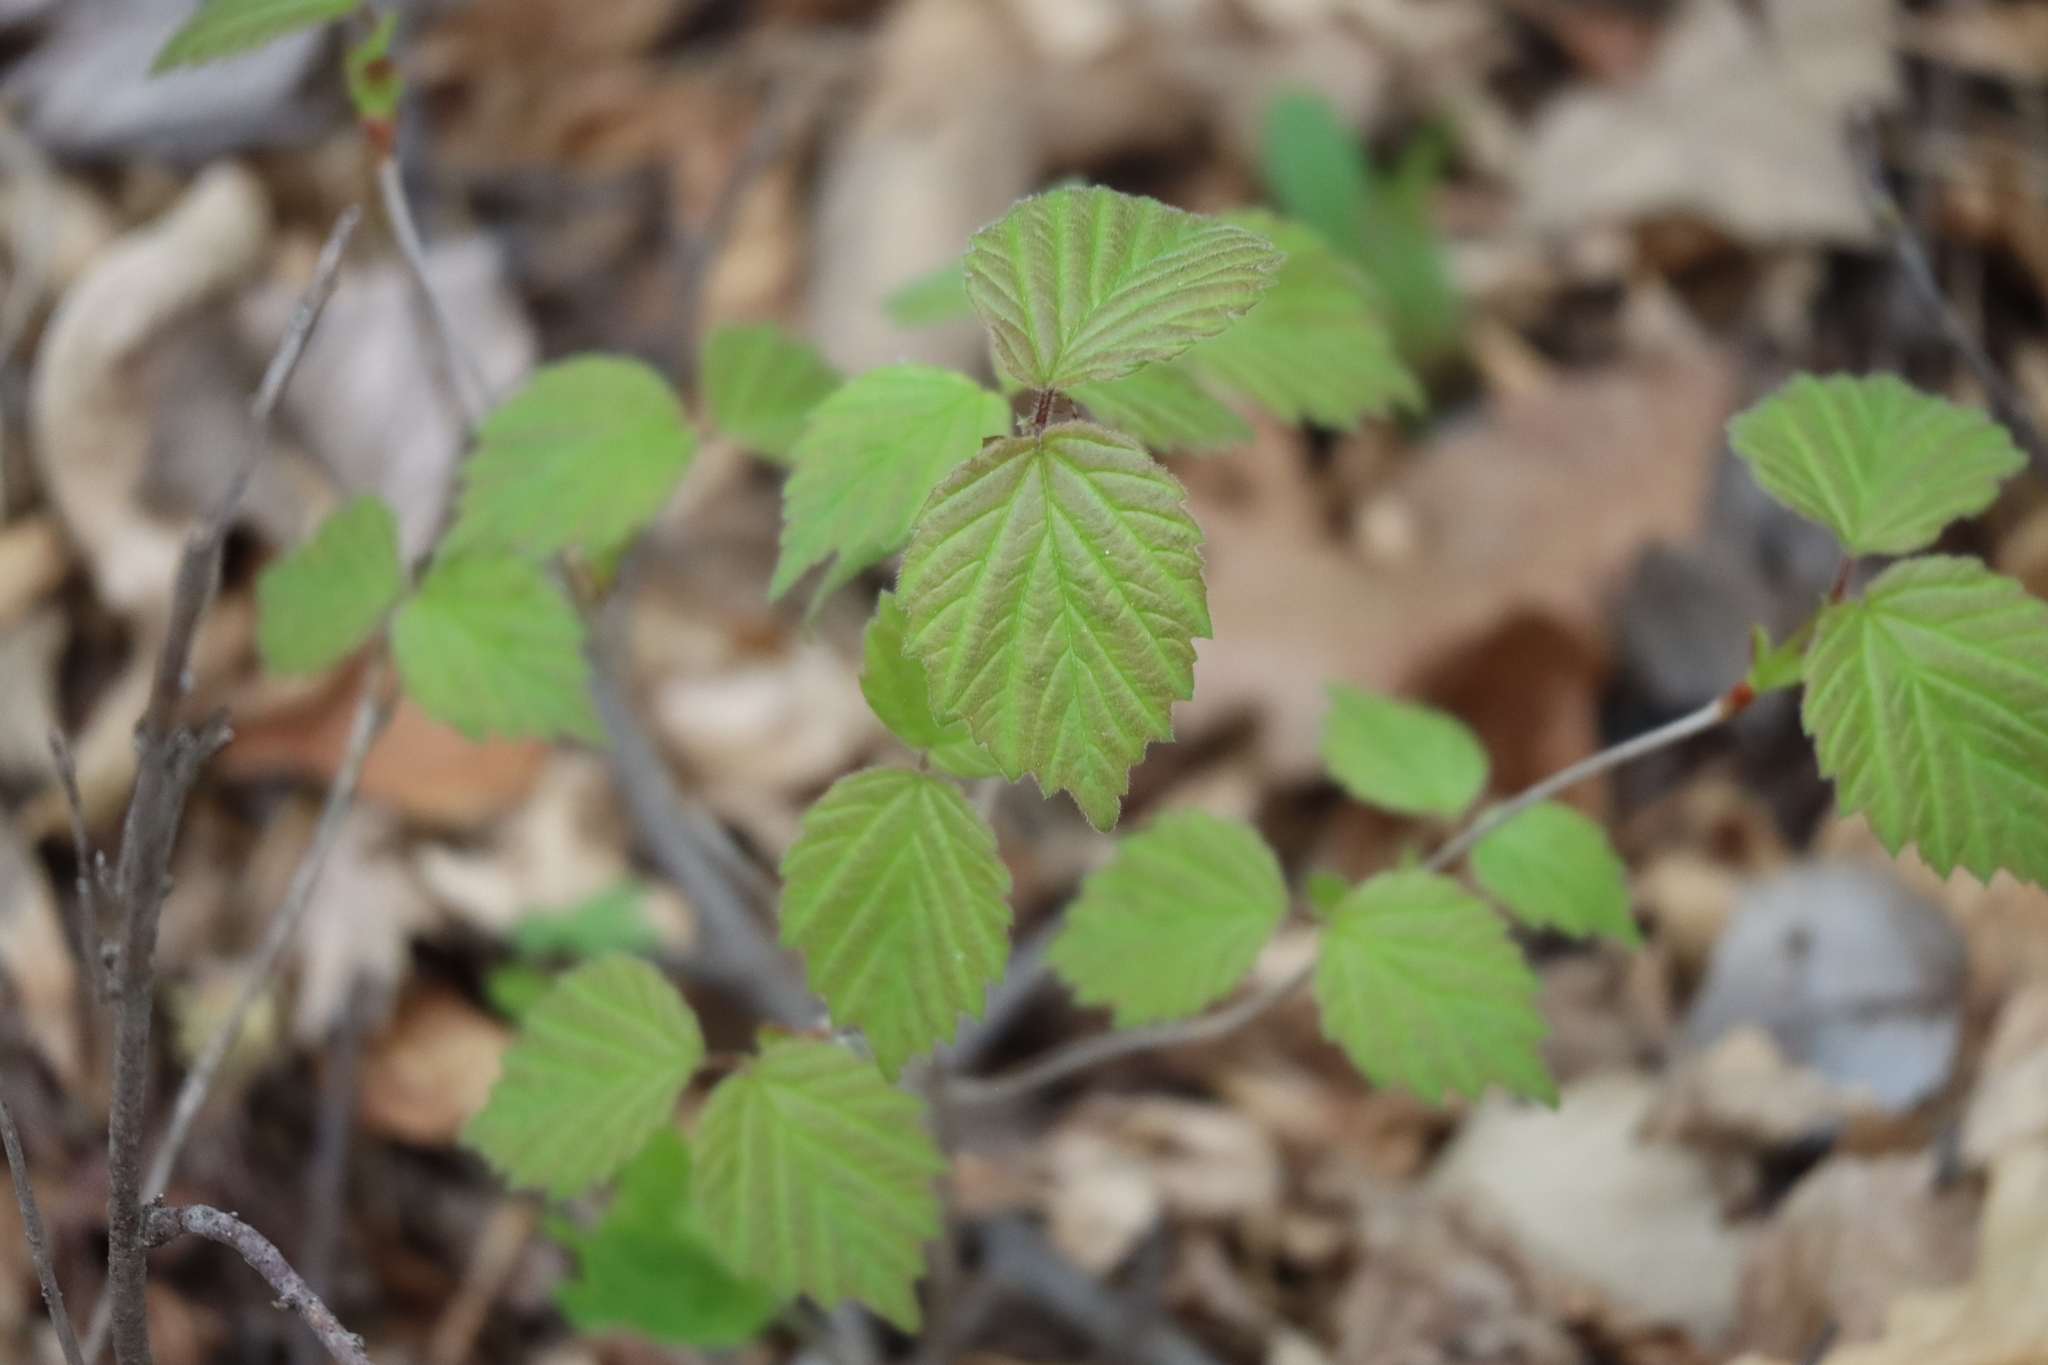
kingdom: Plantae
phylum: Tracheophyta
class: Magnoliopsida
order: Dipsacales
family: Viburnaceae
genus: Viburnum
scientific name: Viburnum rafinesqueanum
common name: Downy arrow-wood
